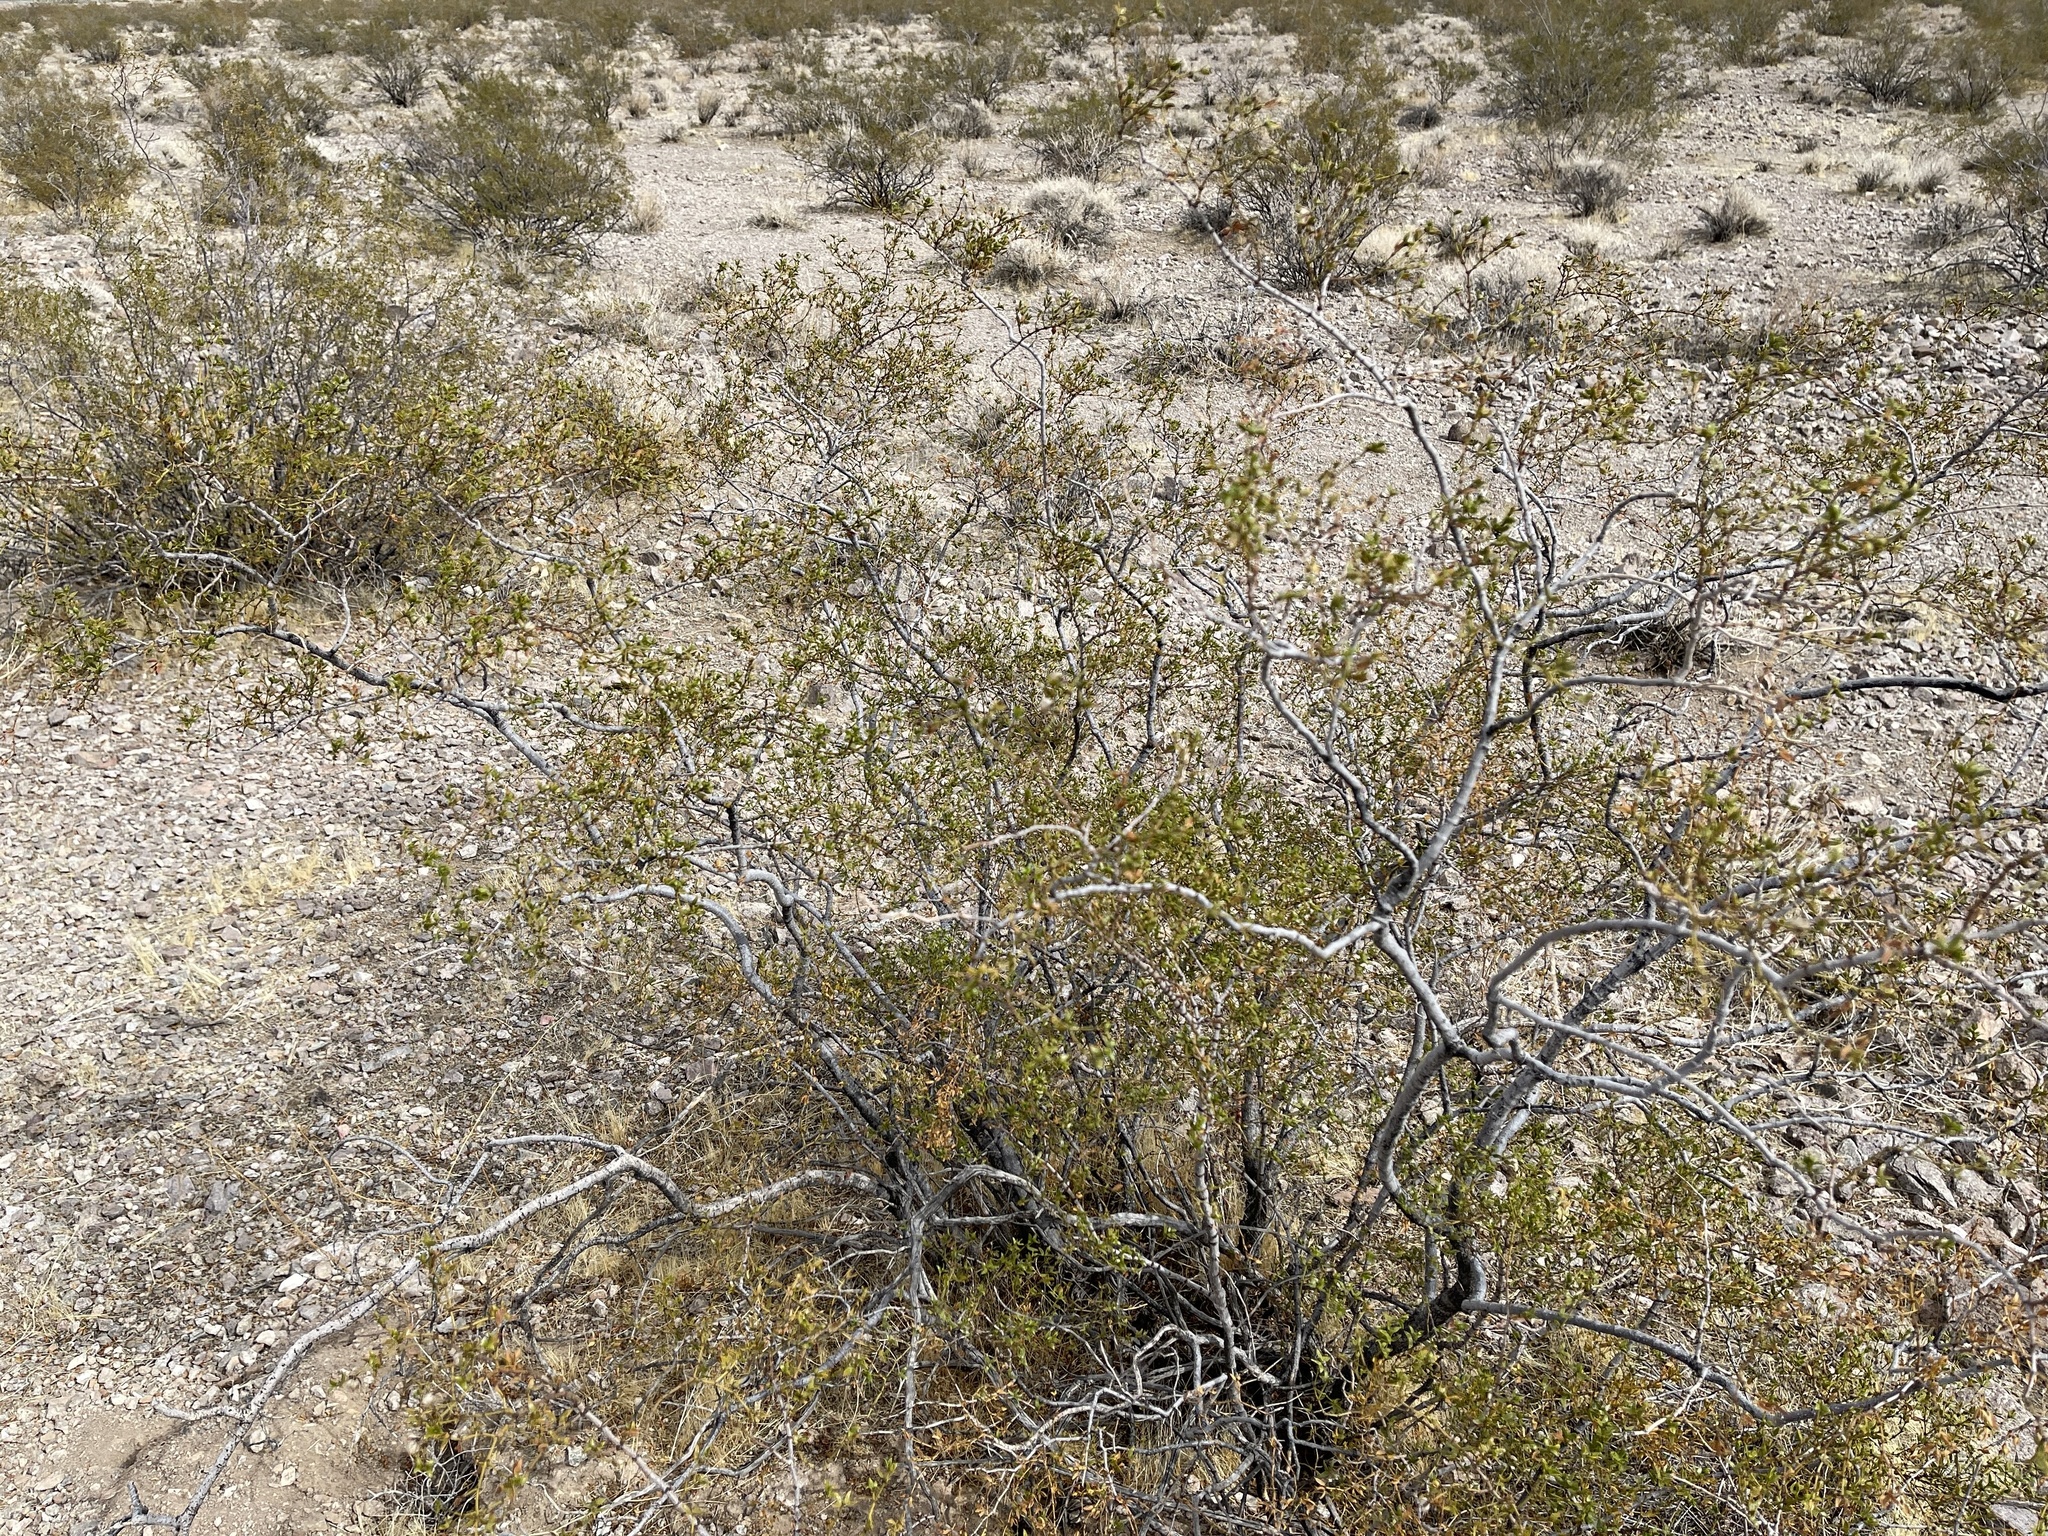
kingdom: Plantae
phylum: Tracheophyta
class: Magnoliopsida
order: Zygophyllales
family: Zygophyllaceae
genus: Larrea
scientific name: Larrea tridentata
